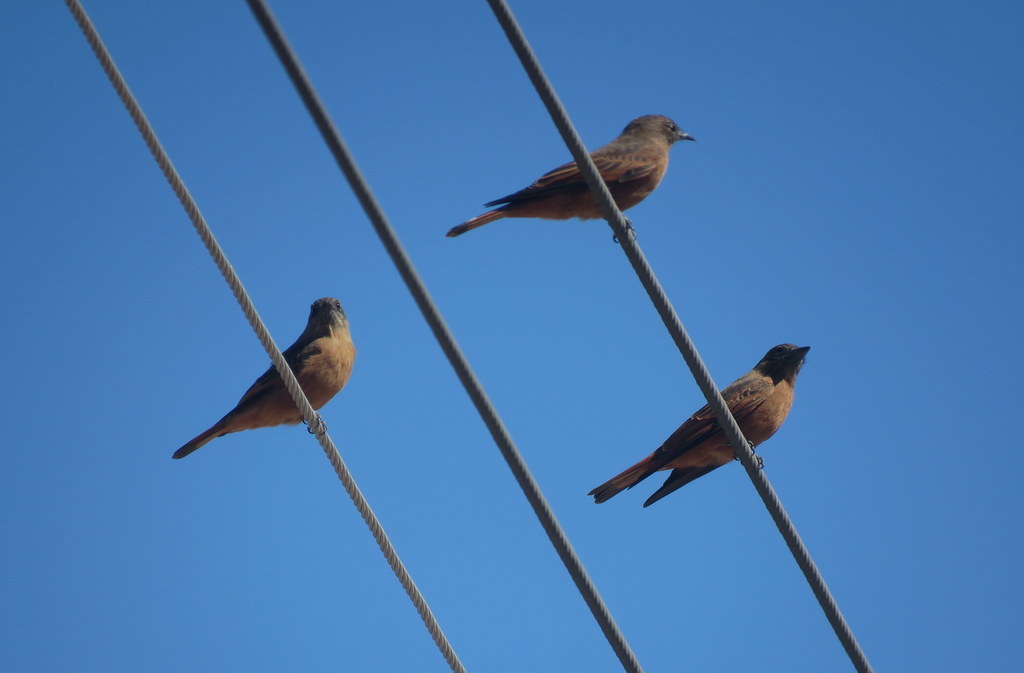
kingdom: Animalia
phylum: Chordata
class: Aves
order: Passeriformes
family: Tyrannidae
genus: Hirundinea
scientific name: Hirundinea ferruginea
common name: Cliff flycatcher
